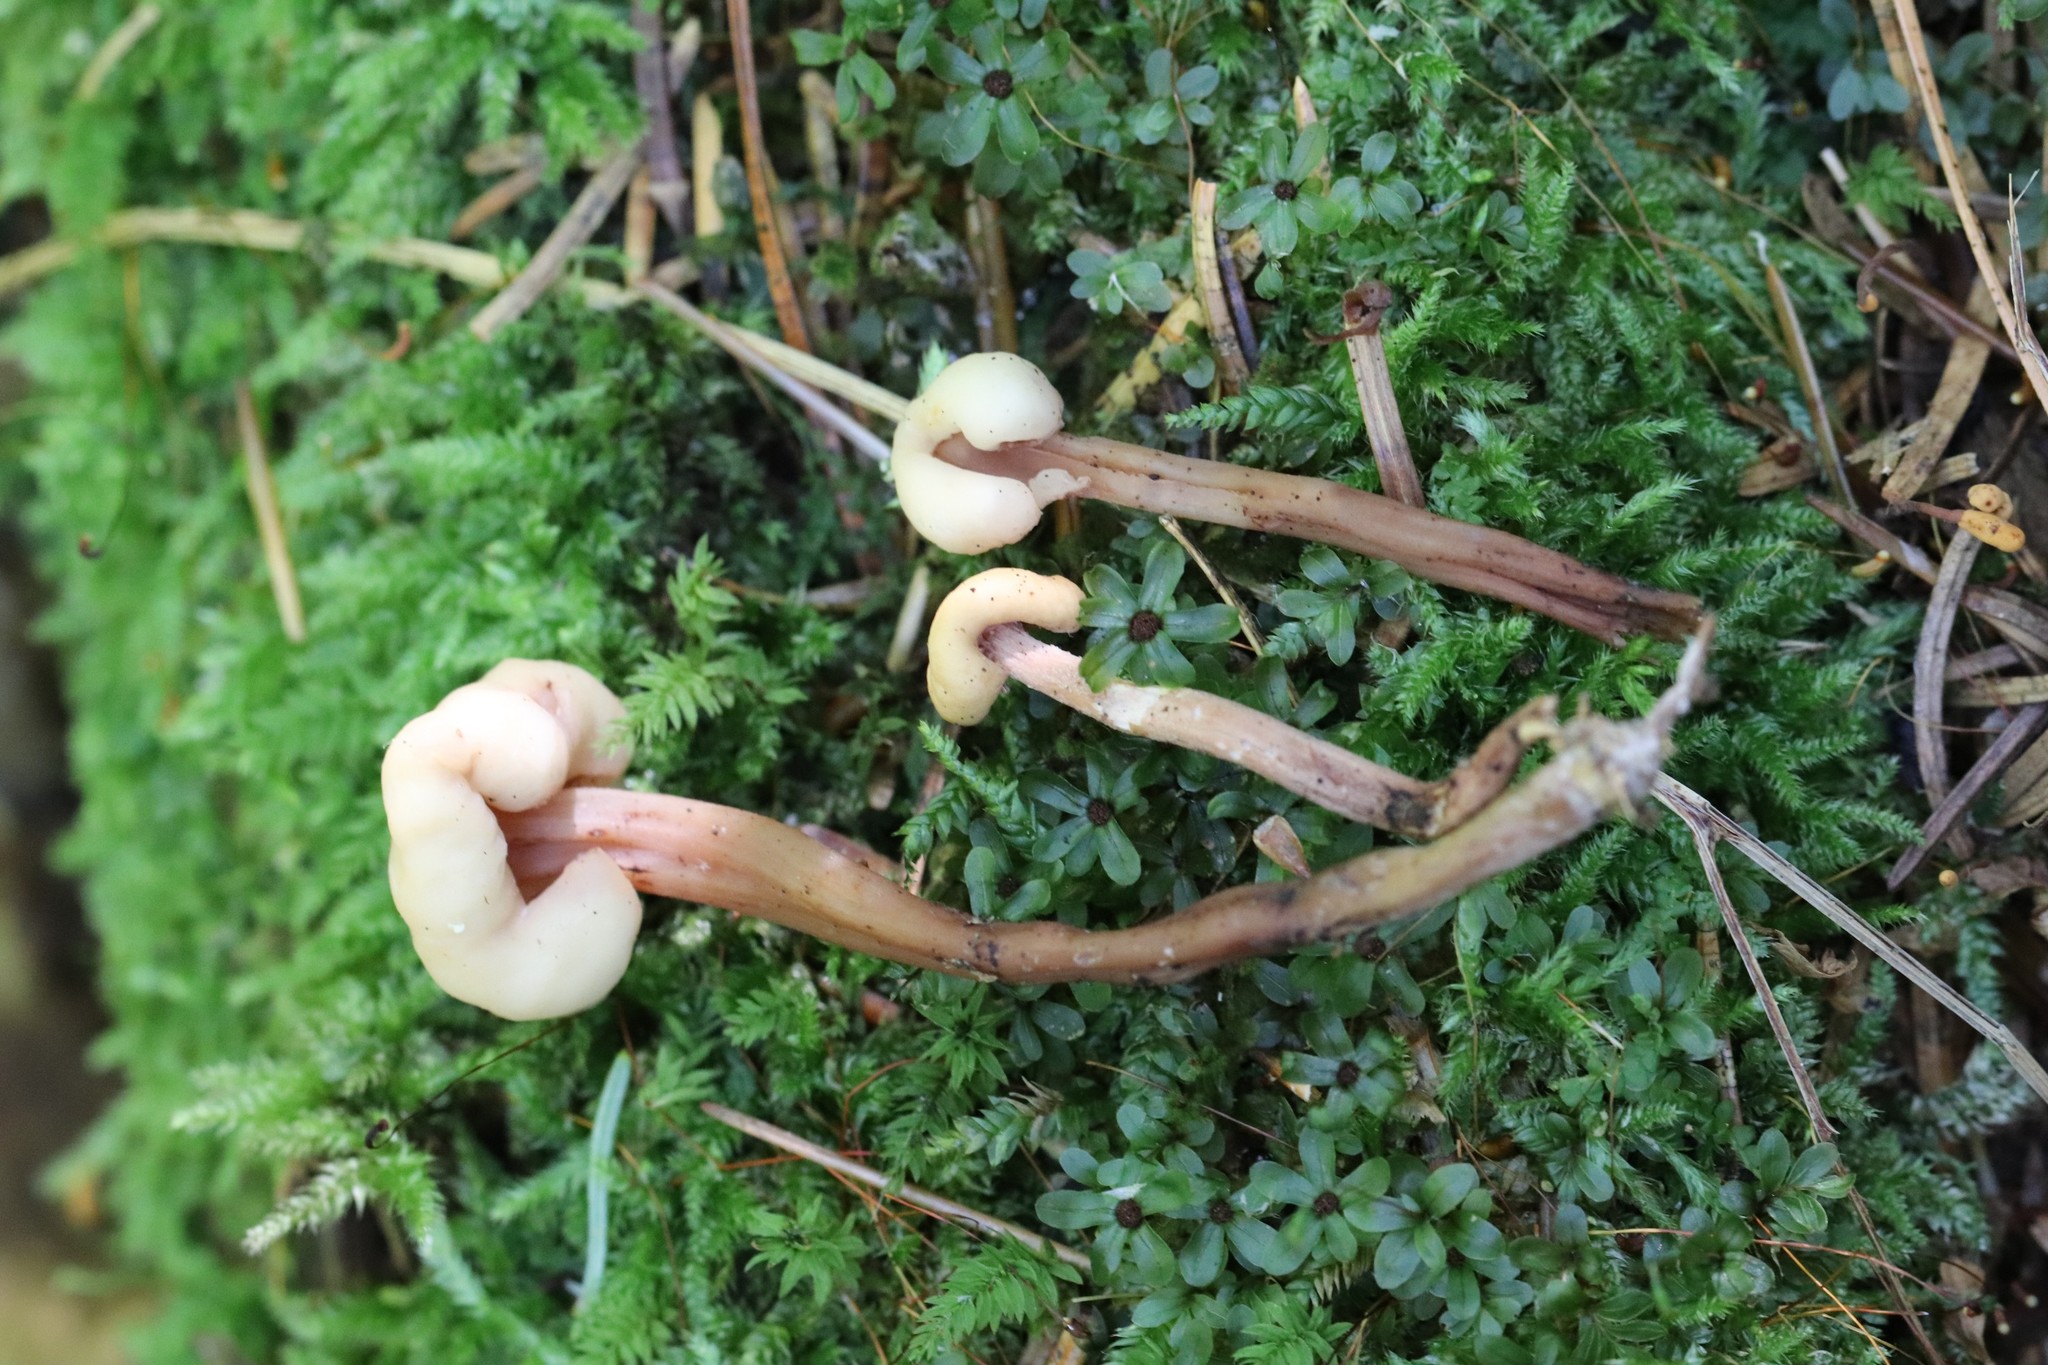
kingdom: Fungi
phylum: Ascomycota
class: Leotiomycetes
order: Rhytismatales
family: Cudoniaceae
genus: Cudonia
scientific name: Cudonia circinans
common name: Redleg jellybaby
